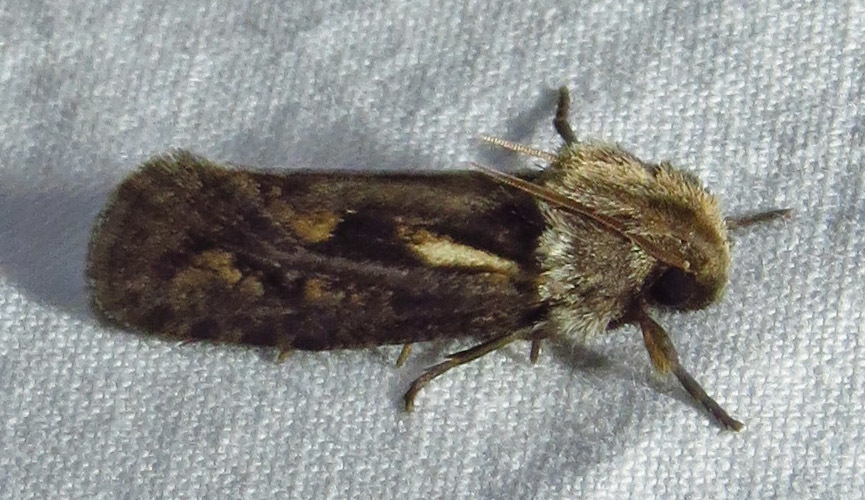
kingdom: Animalia
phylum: Arthropoda
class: Insecta
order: Lepidoptera
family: Tineidae
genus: Acrolophus
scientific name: Acrolophus popeanella
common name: Clemens' grass tubeworm moth
